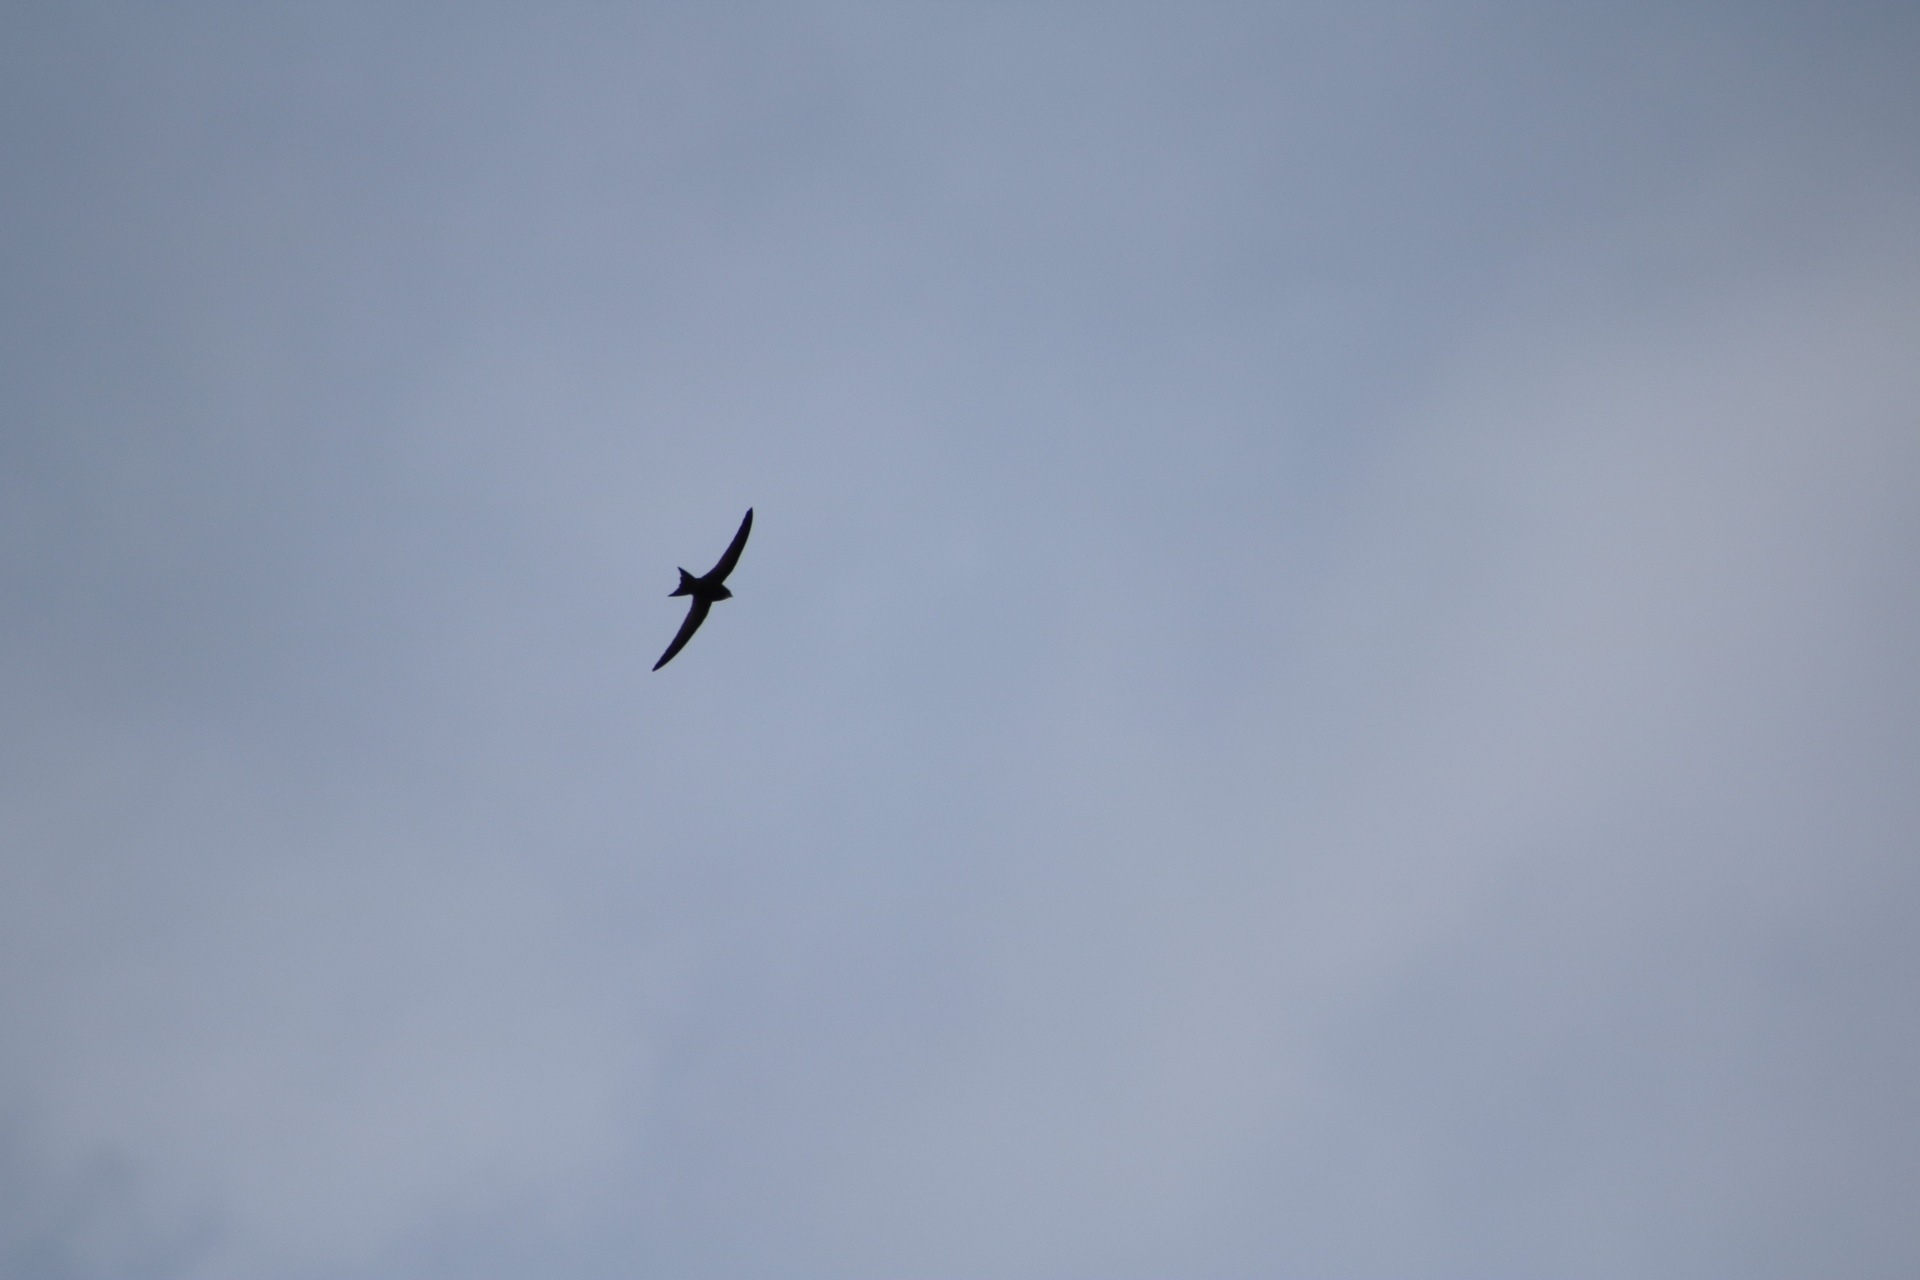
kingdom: Animalia
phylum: Chordata
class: Aves
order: Apodiformes
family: Apodidae
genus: Tachymarptis
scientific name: Tachymarptis melba
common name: Alpine swift
